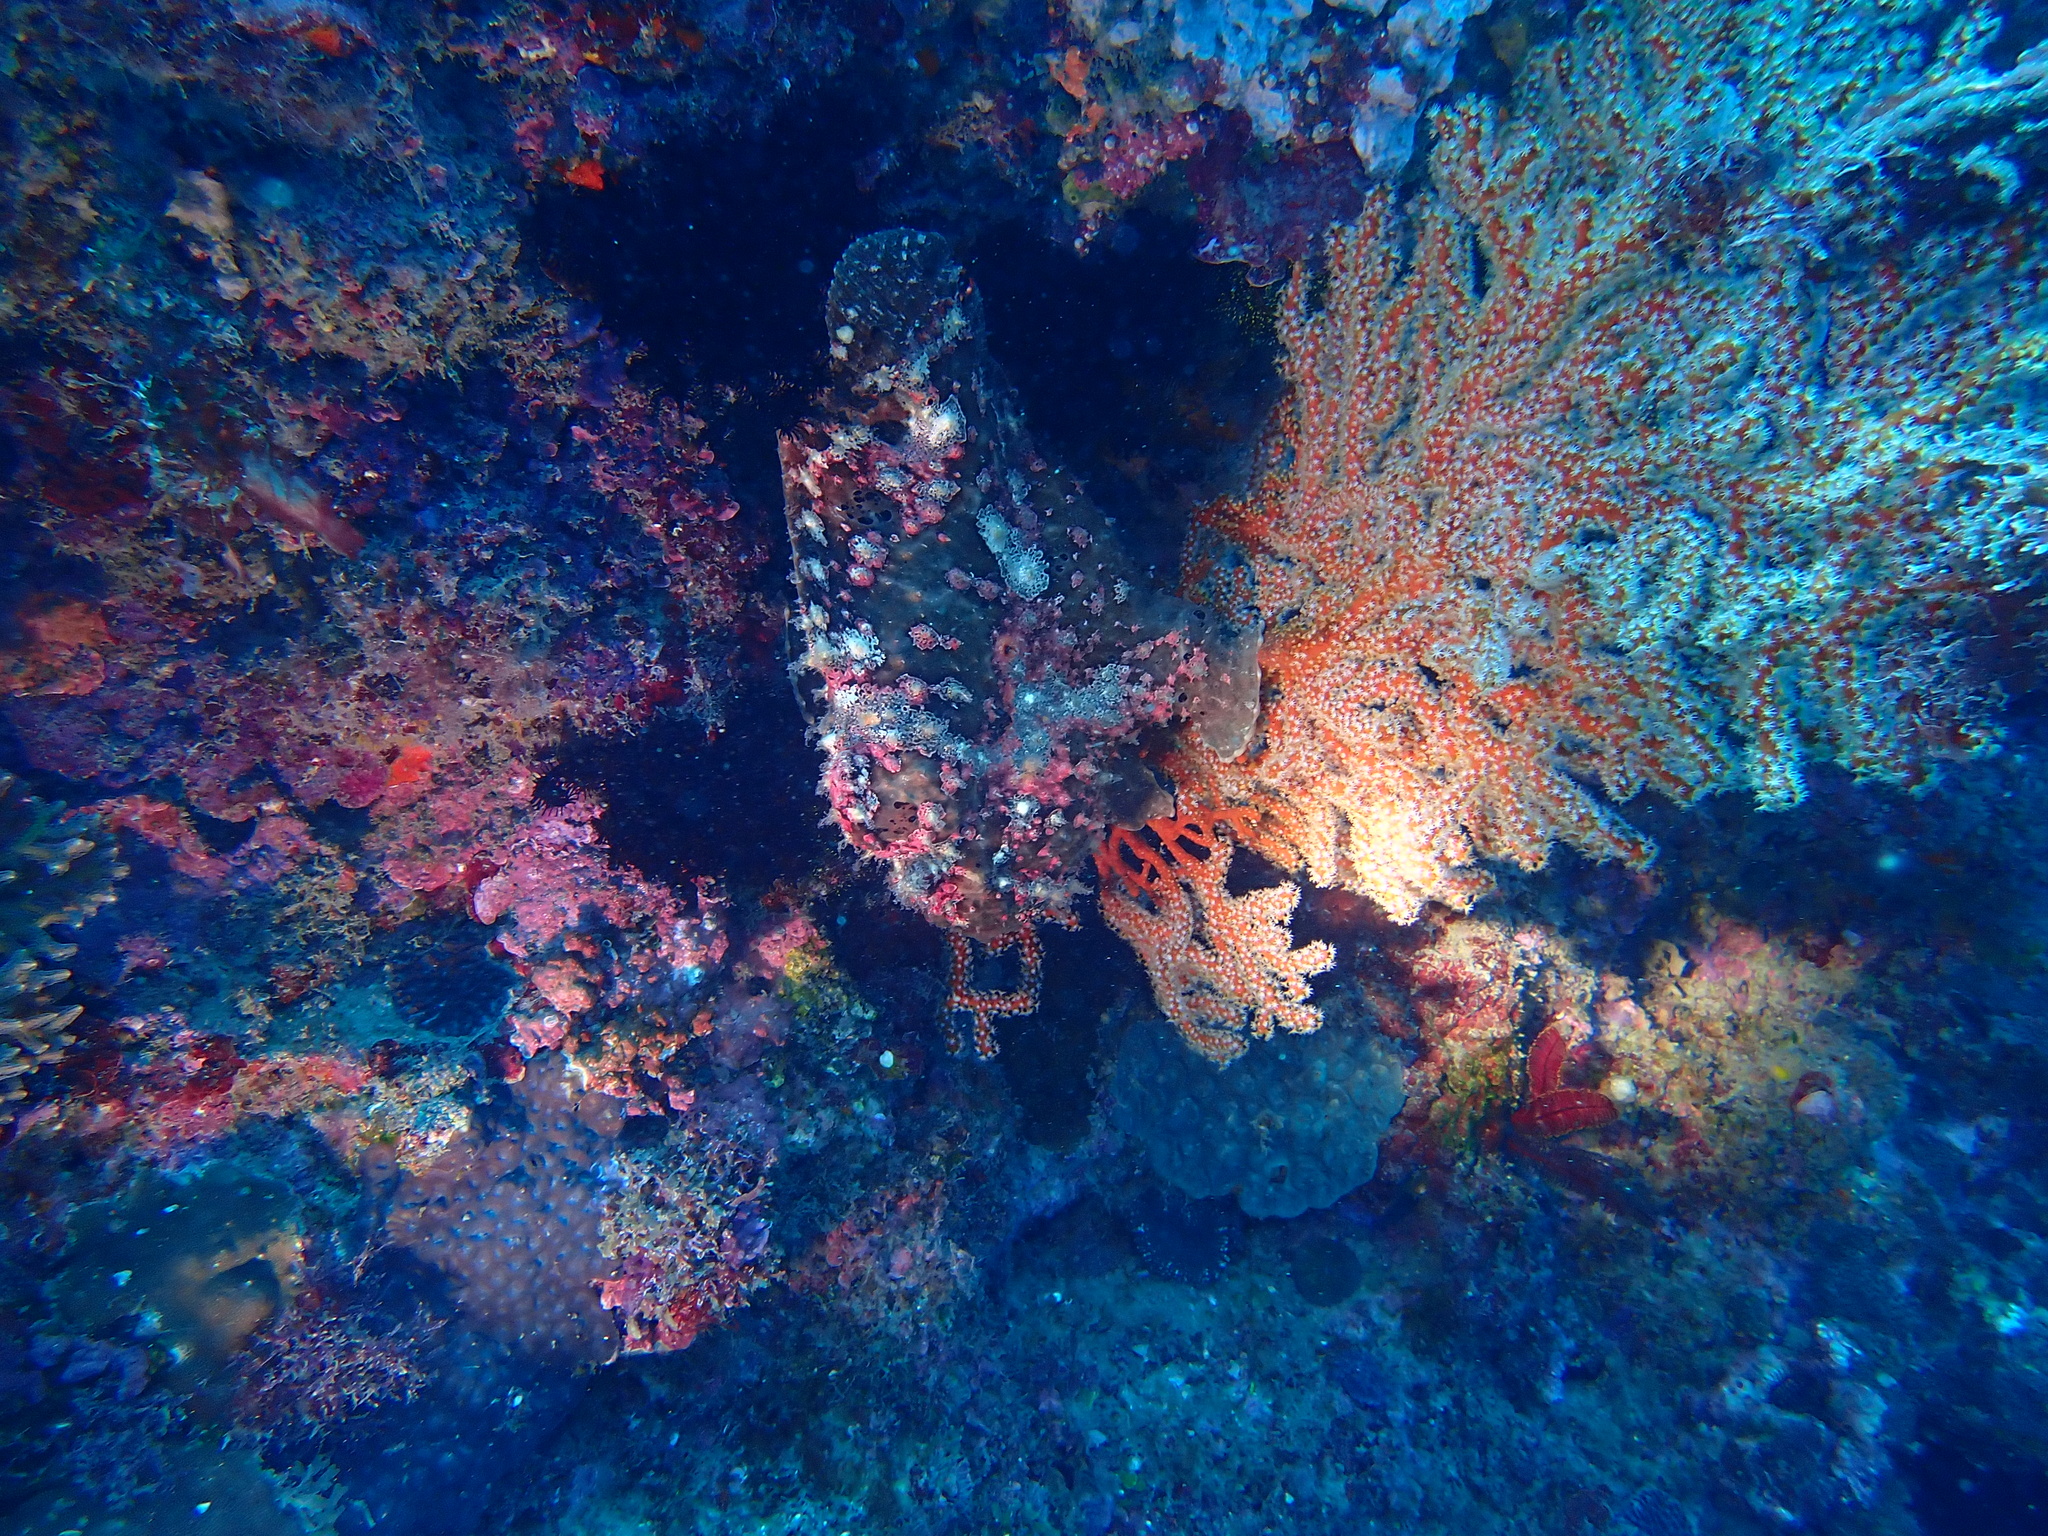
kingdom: Animalia
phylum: Chordata
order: Lophiiformes
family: Antennariidae
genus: Antennarius
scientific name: Antennarius commerson
